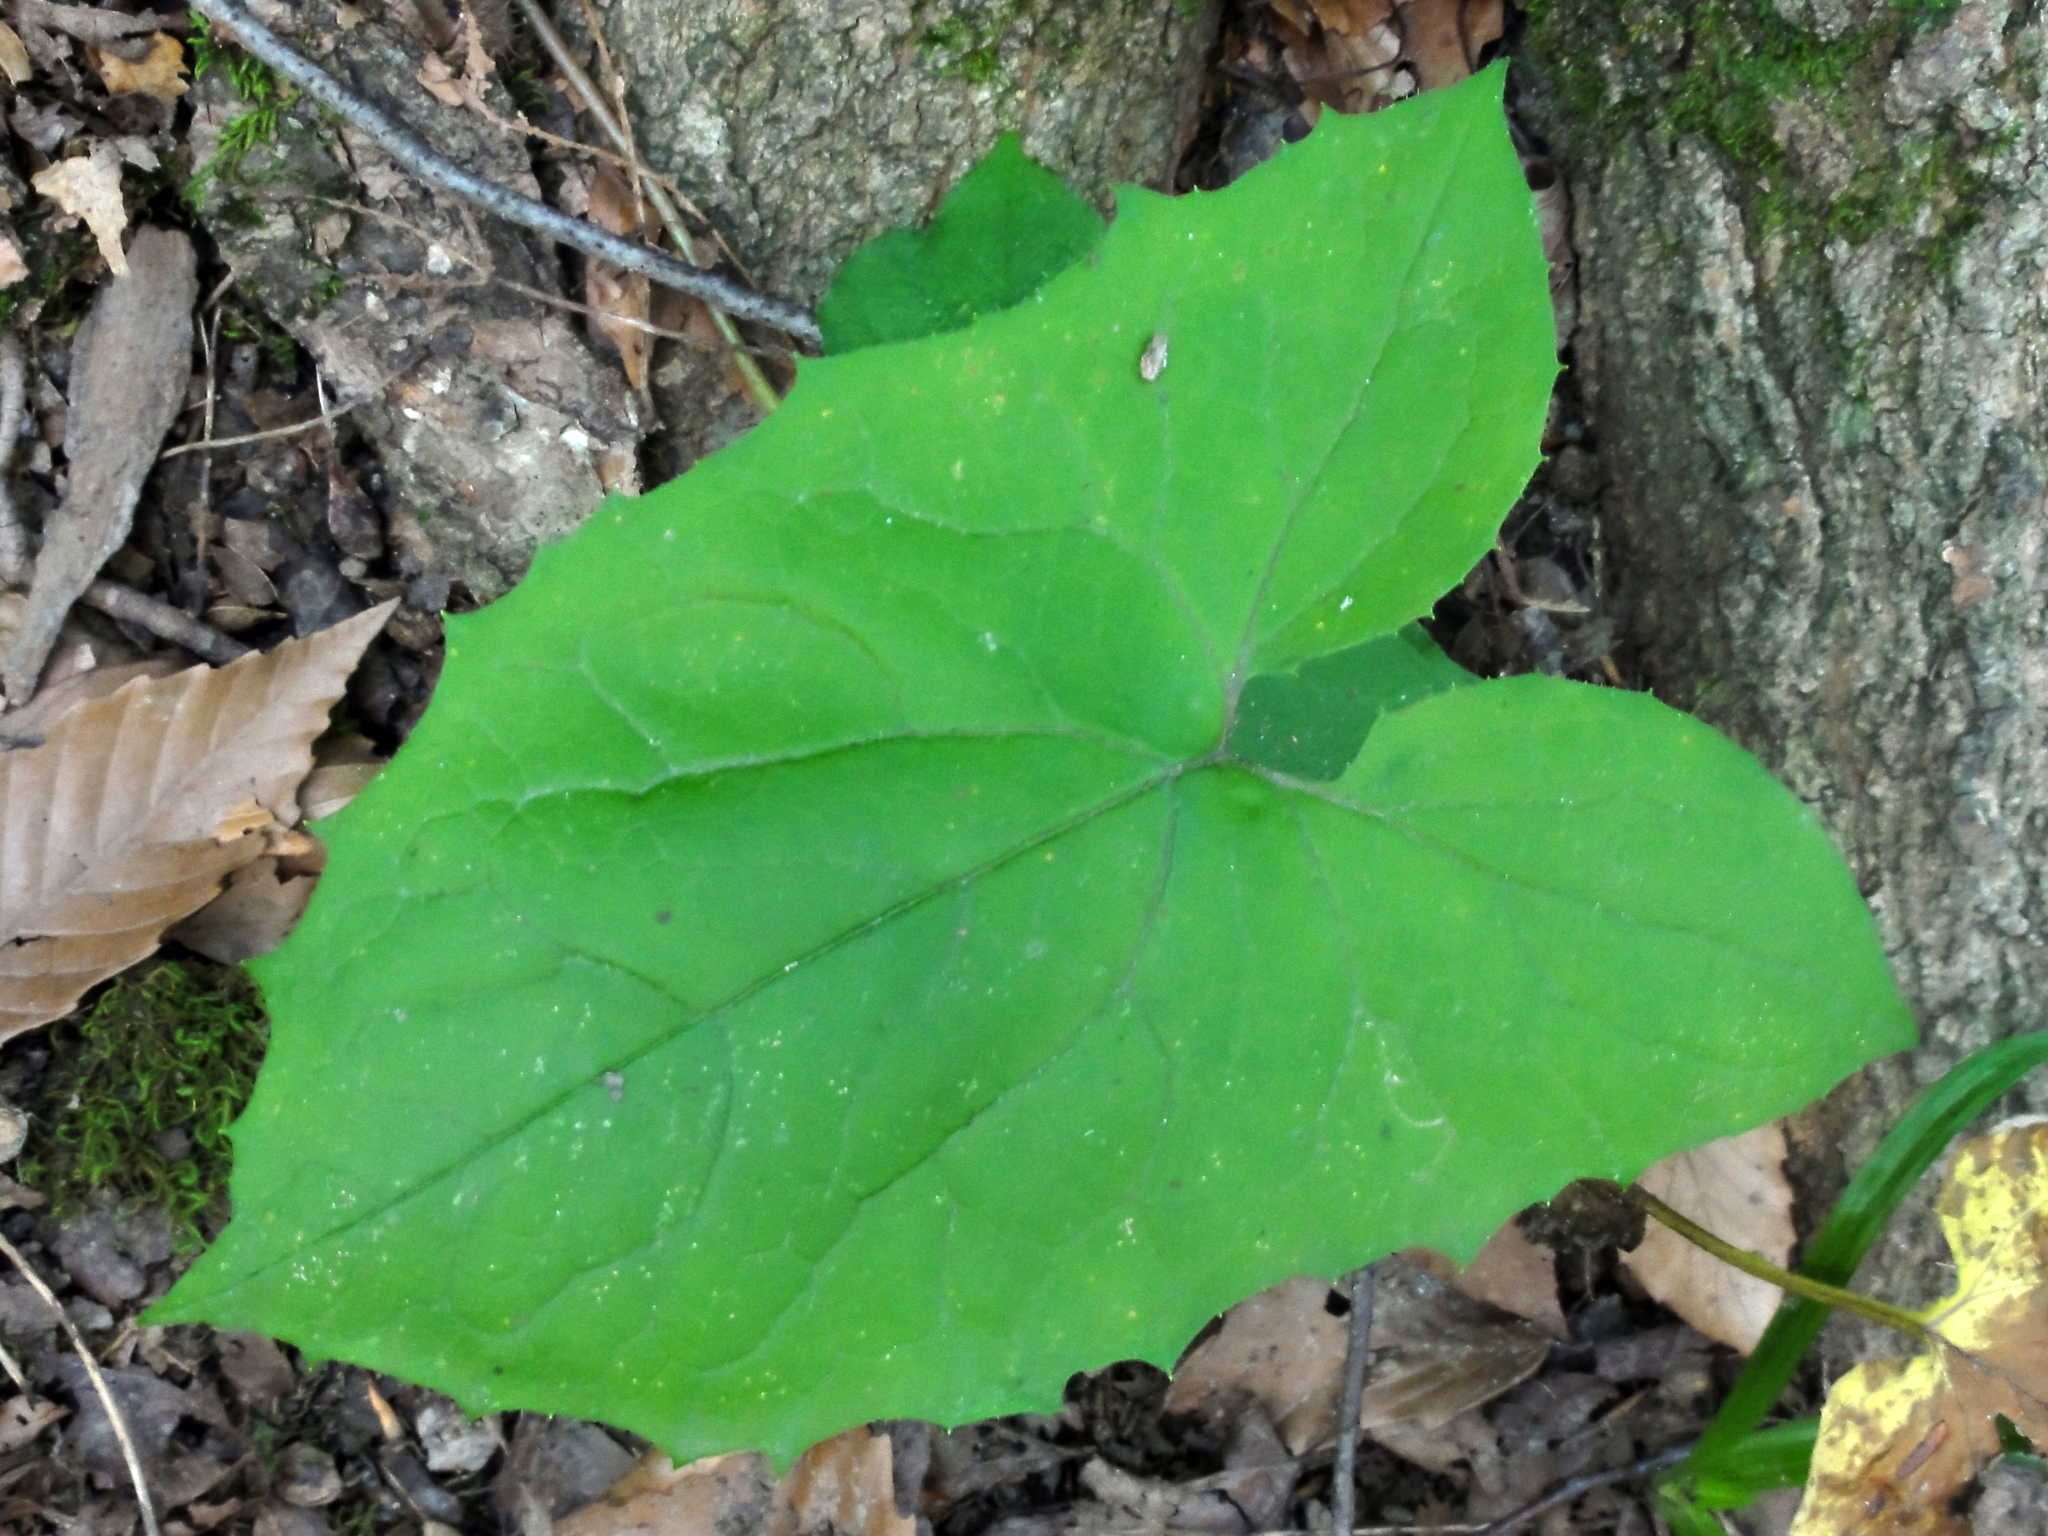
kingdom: Plantae
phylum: Tracheophyta
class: Magnoliopsida
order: Asterales
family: Asteraceae
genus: Nabalus
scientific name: Nabalus
